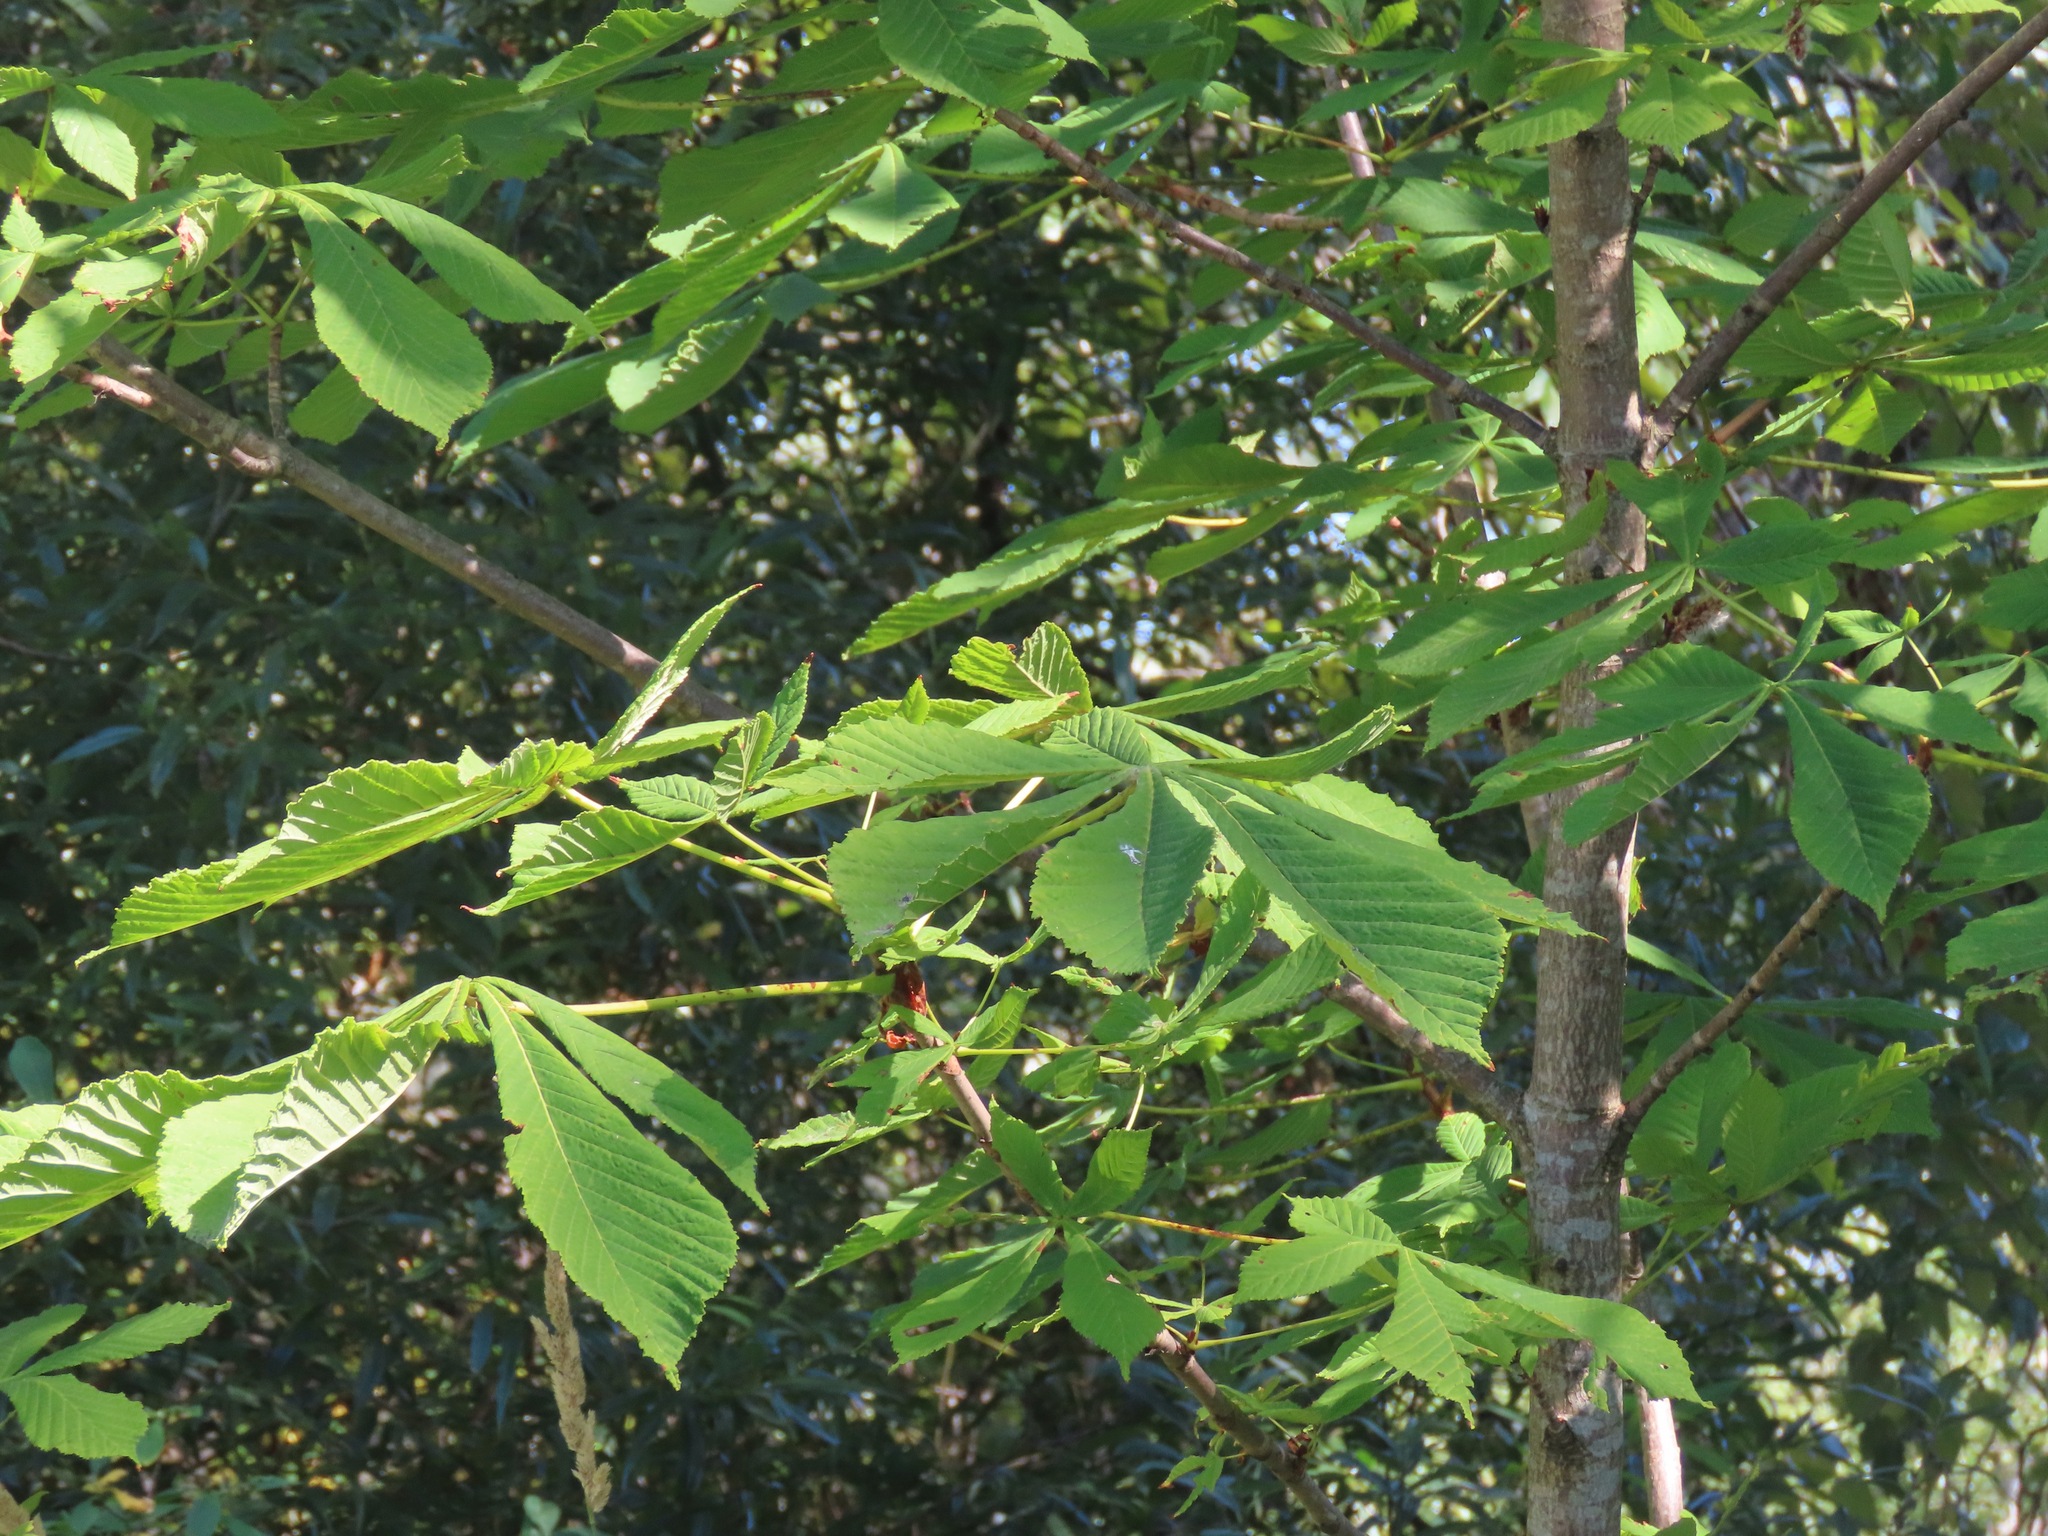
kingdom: Plantae
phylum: Tracheophyta
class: Magnoliopsida
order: Sapindales
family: Sapindaceae
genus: Aesculus
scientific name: Aesculus hippocastanum
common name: Horse-chestnut
